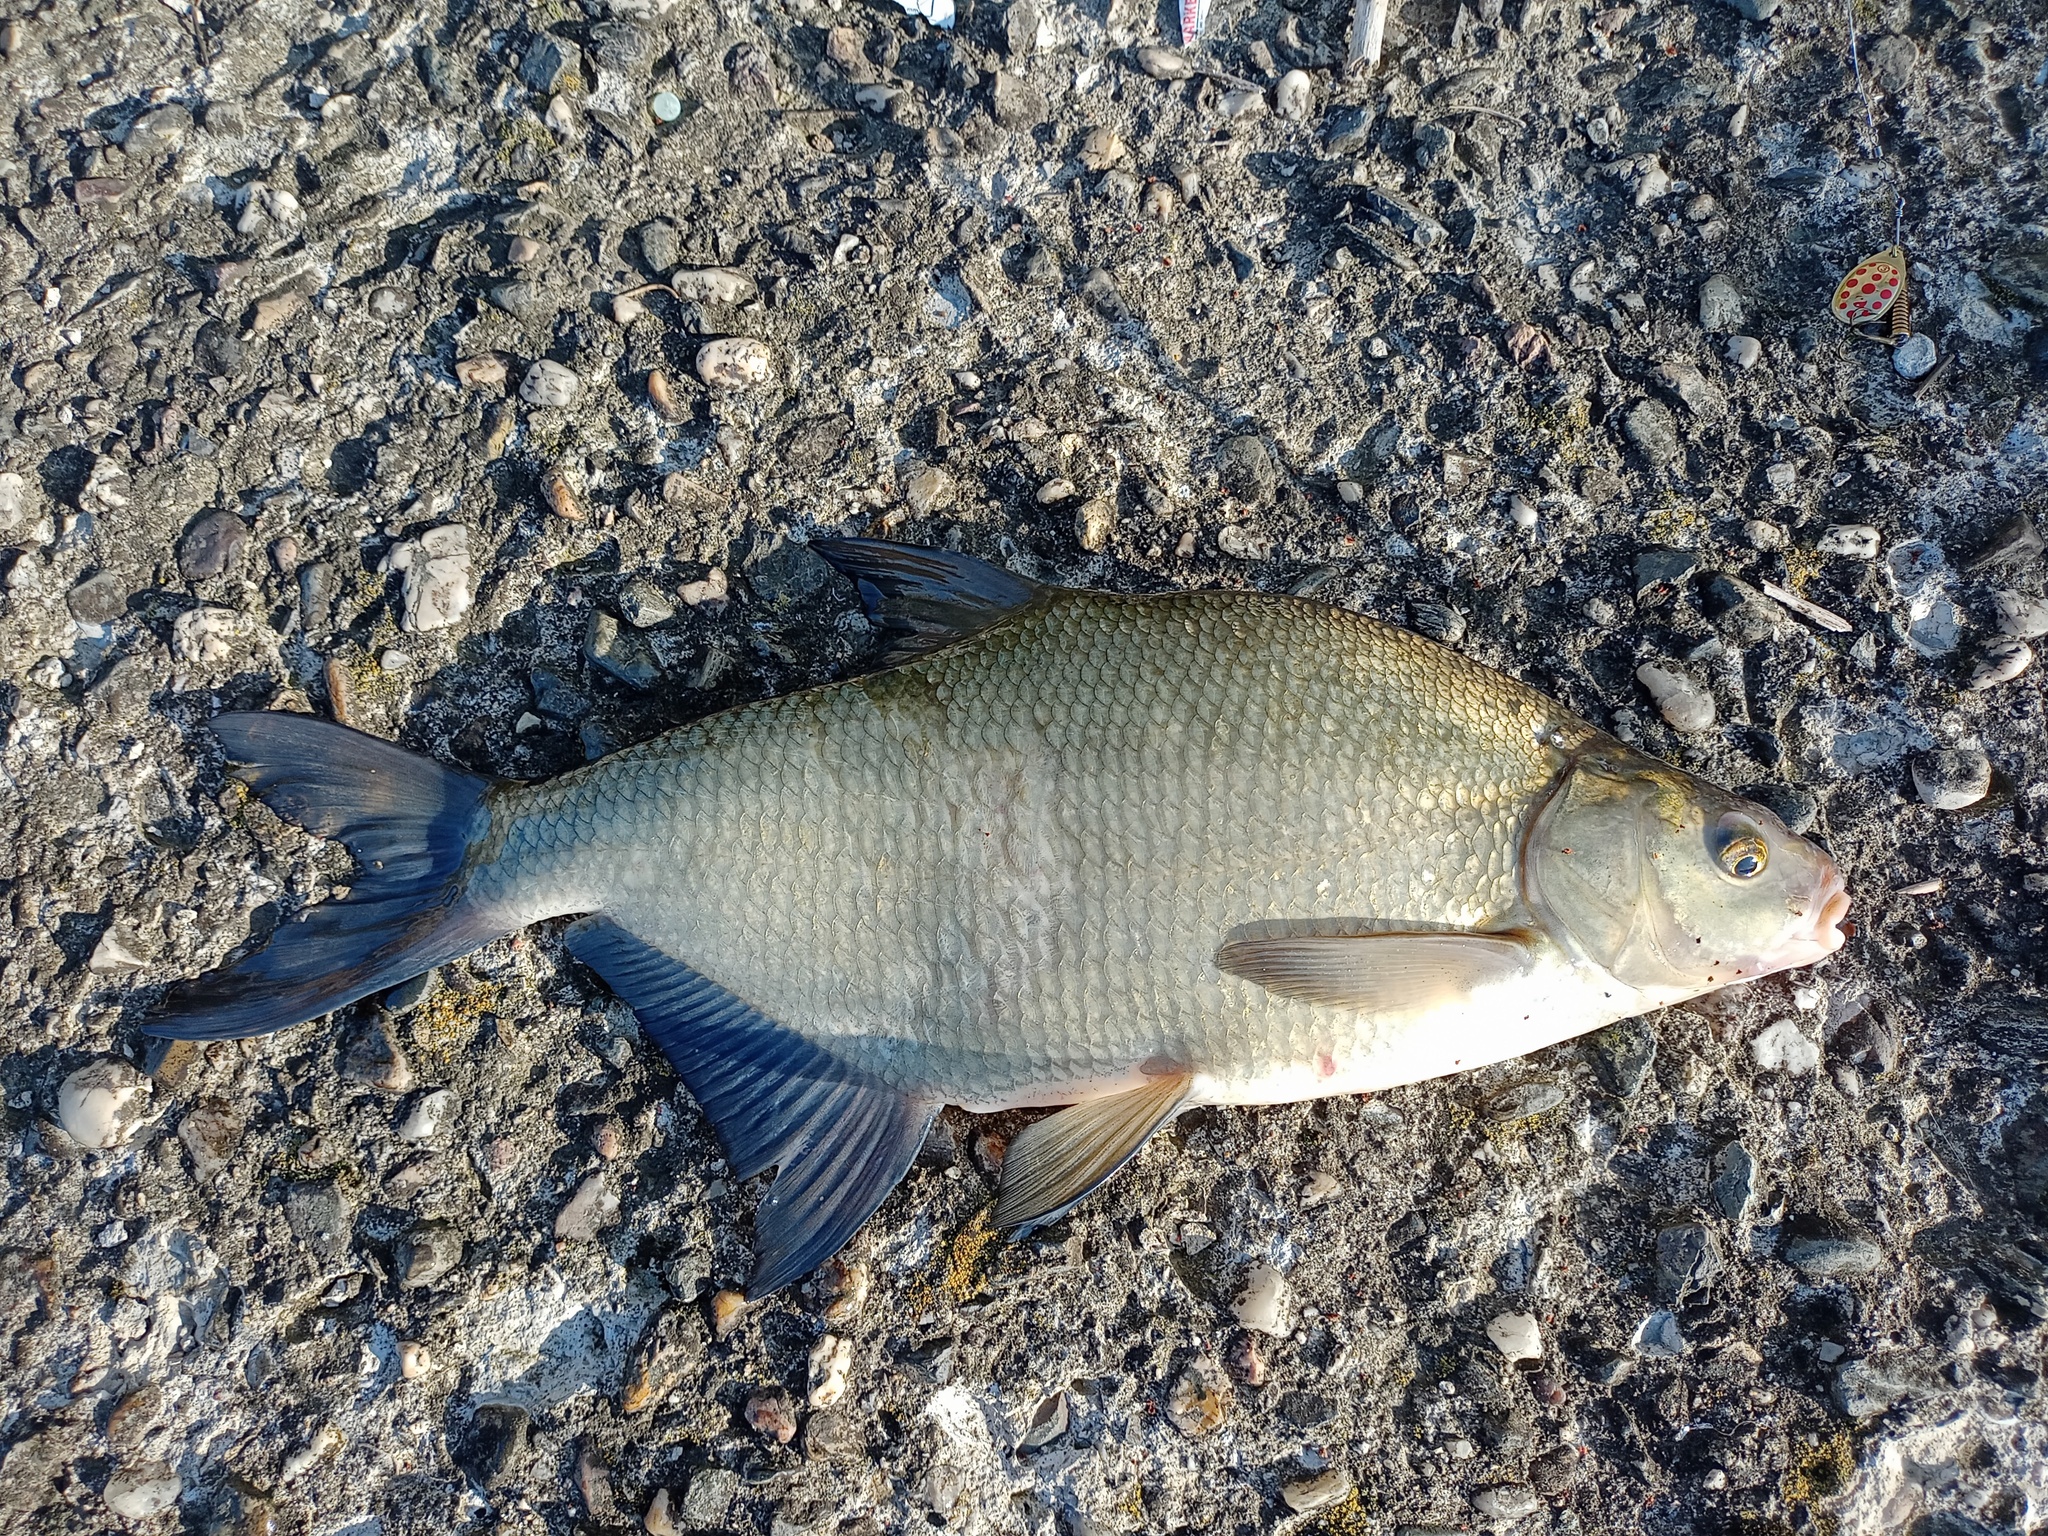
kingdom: Animalia
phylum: Chordata
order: Cypriniformes
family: Cyprinidae
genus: Abramis
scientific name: Abramis brama
